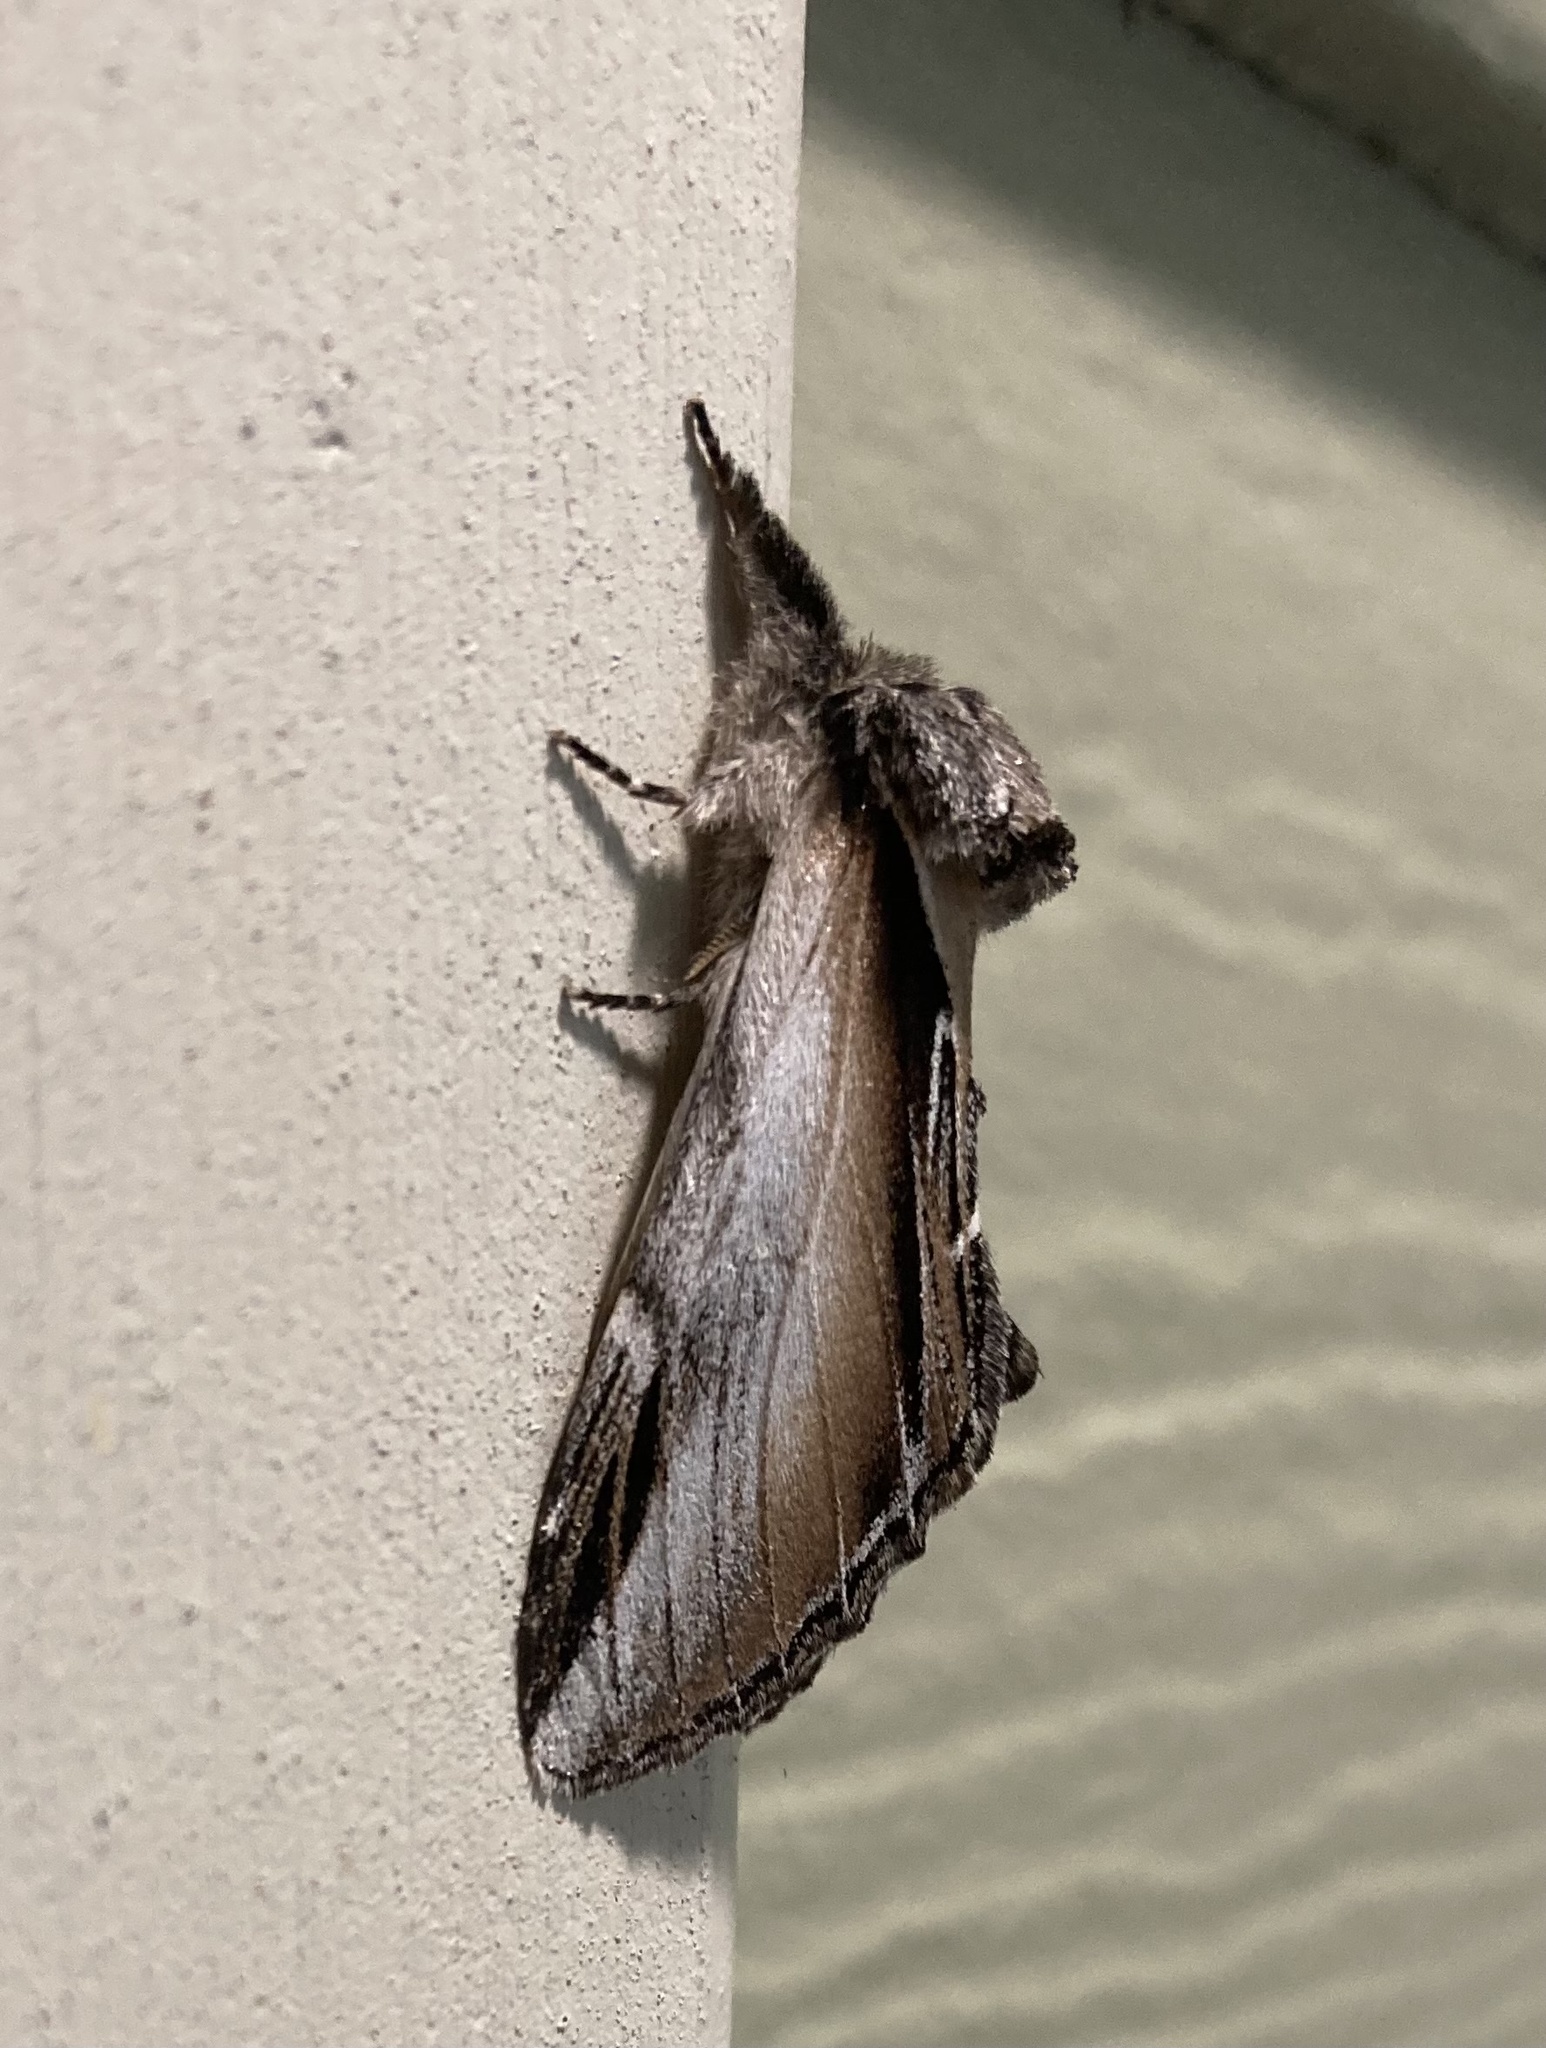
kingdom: Animalia
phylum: Arthropoda
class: Insecta
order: Lepidoptera
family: Notodontidae
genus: Pheosia
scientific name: Pheosia rimosa
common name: Black-rimmed prominent
